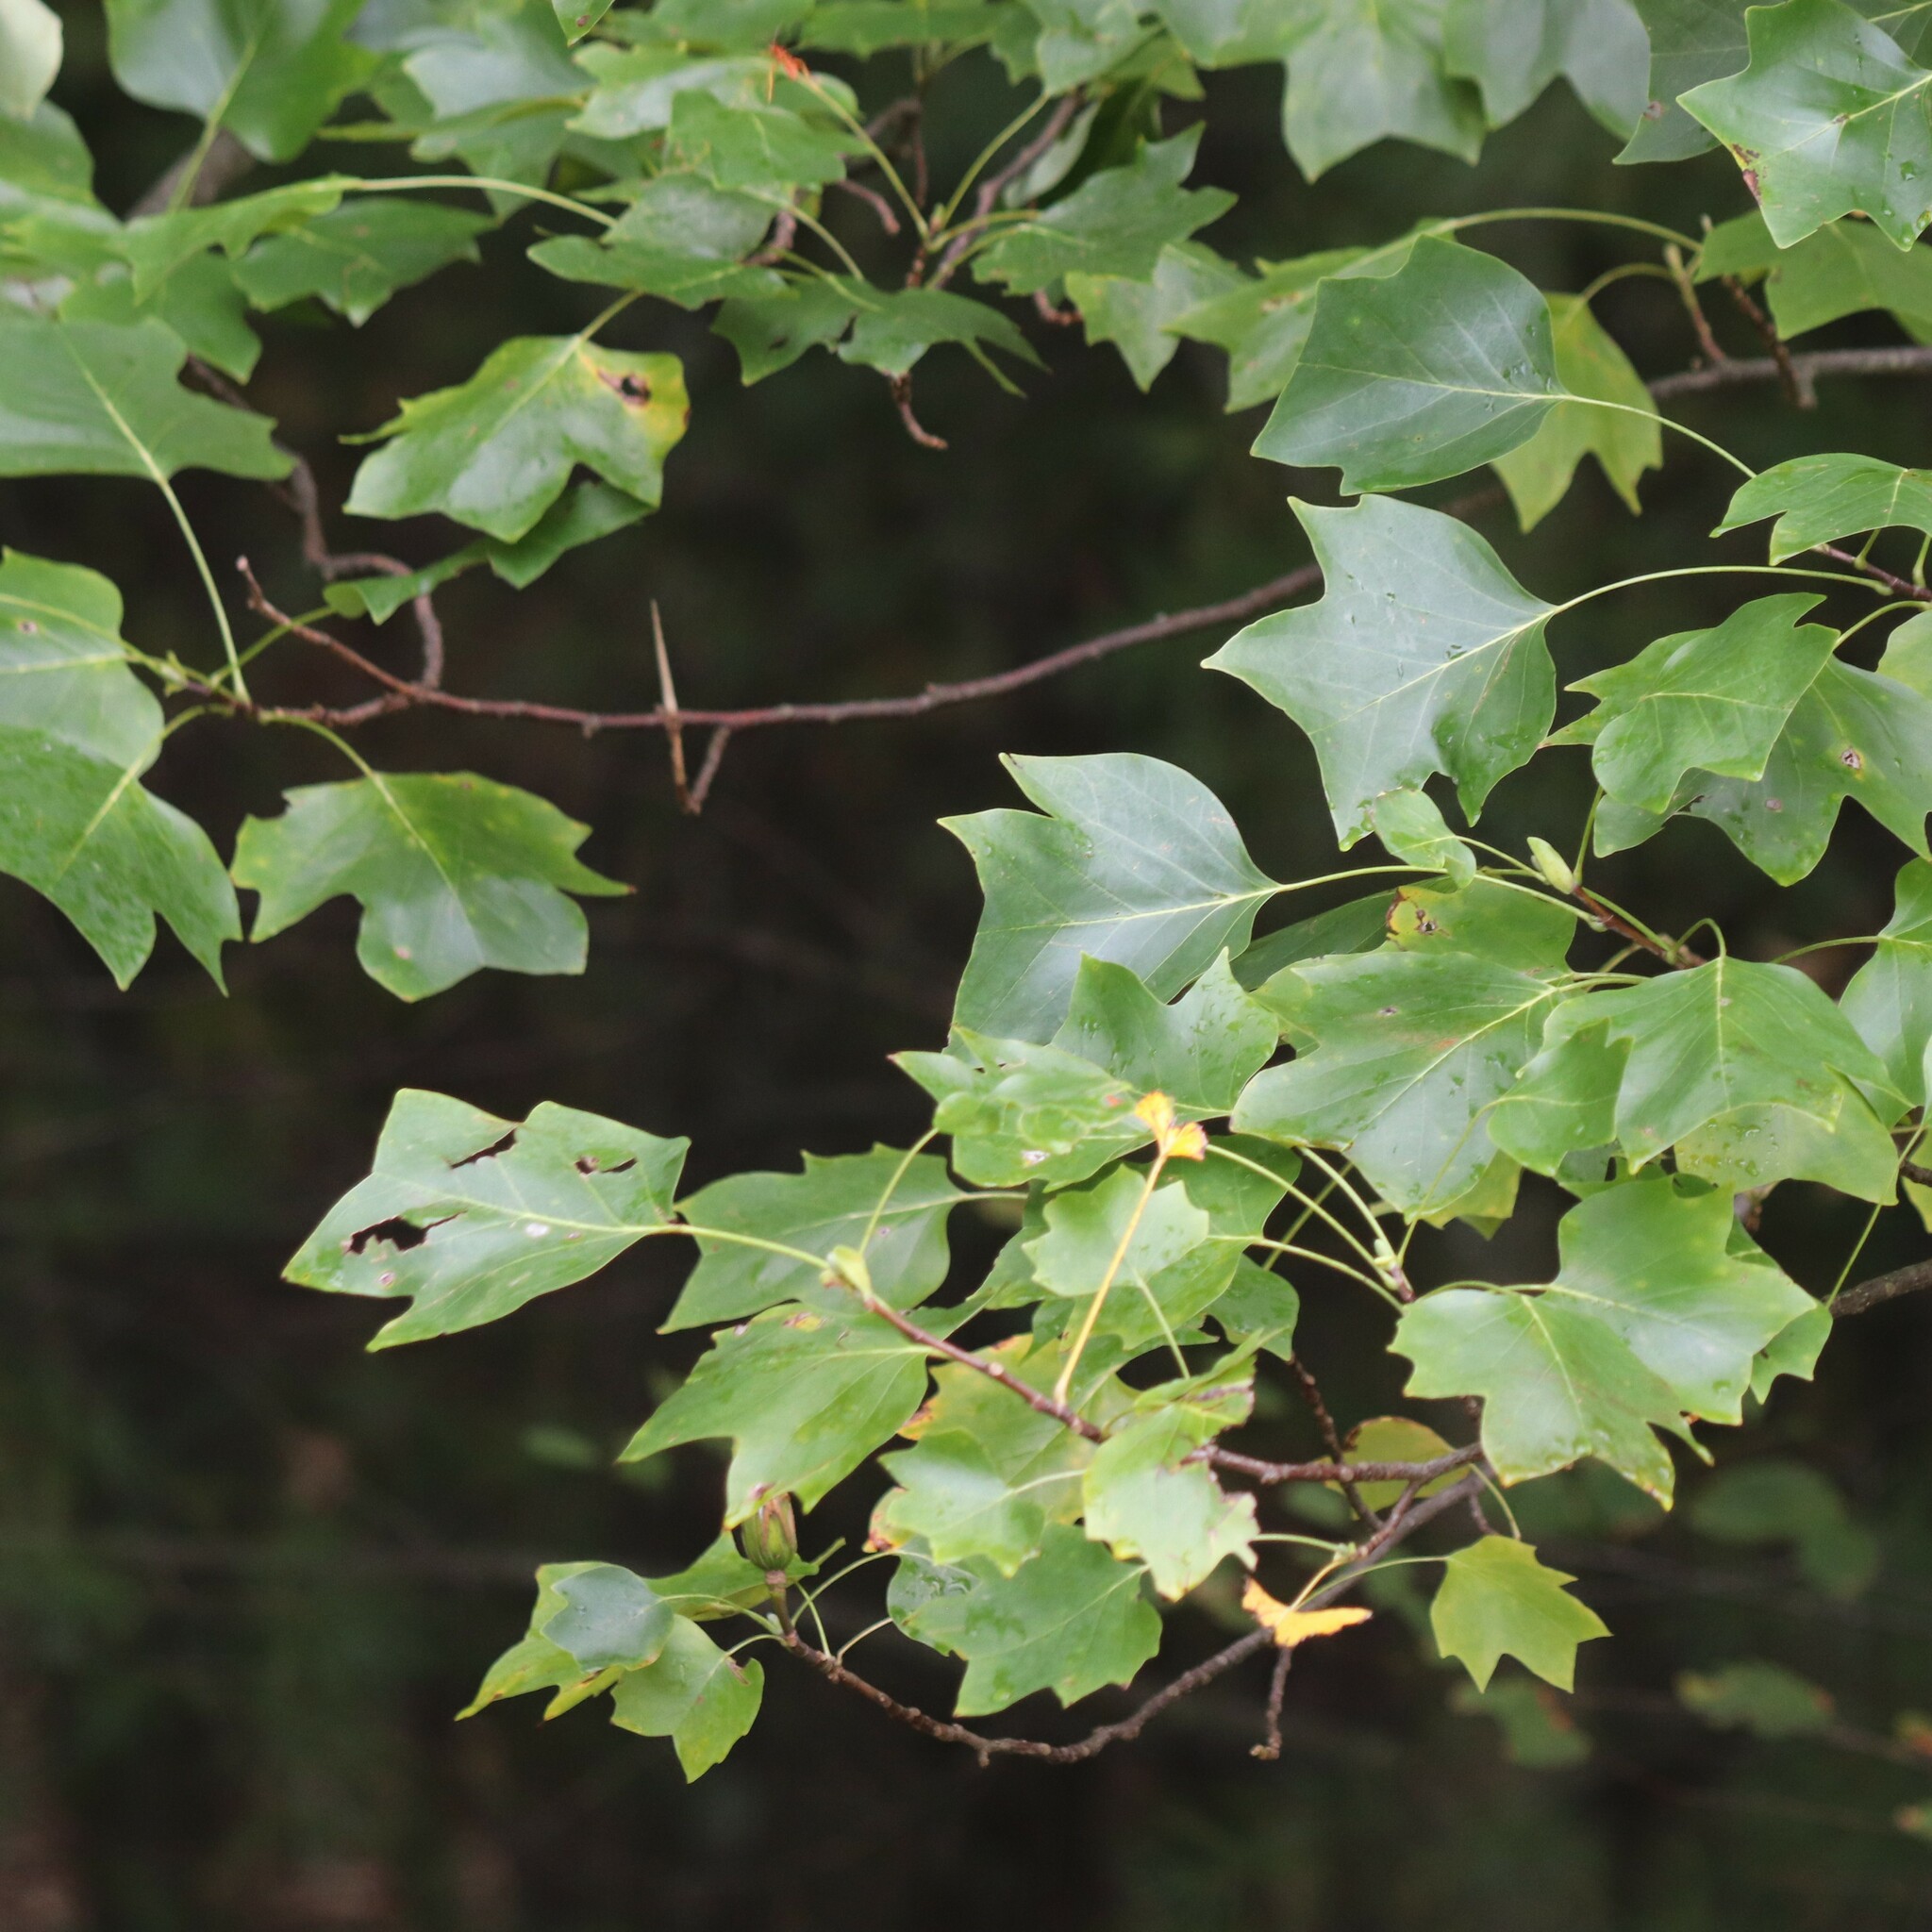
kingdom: Plantae
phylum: Tracheophyta
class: Magnoliopsida
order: Magnoliales
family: Magnoliaceae
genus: Liriodendron
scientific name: Liriodendron tulipifera
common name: Tulip tree
